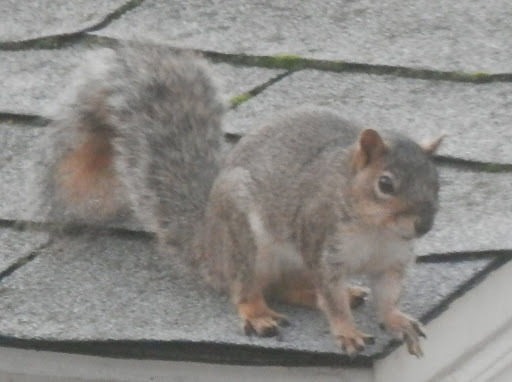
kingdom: Animalia
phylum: Chordata
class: Mammalia
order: Rodentia
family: Sciuridae
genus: Sciurus
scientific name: Sciurus carolinensis
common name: Eastern gray squirrel
